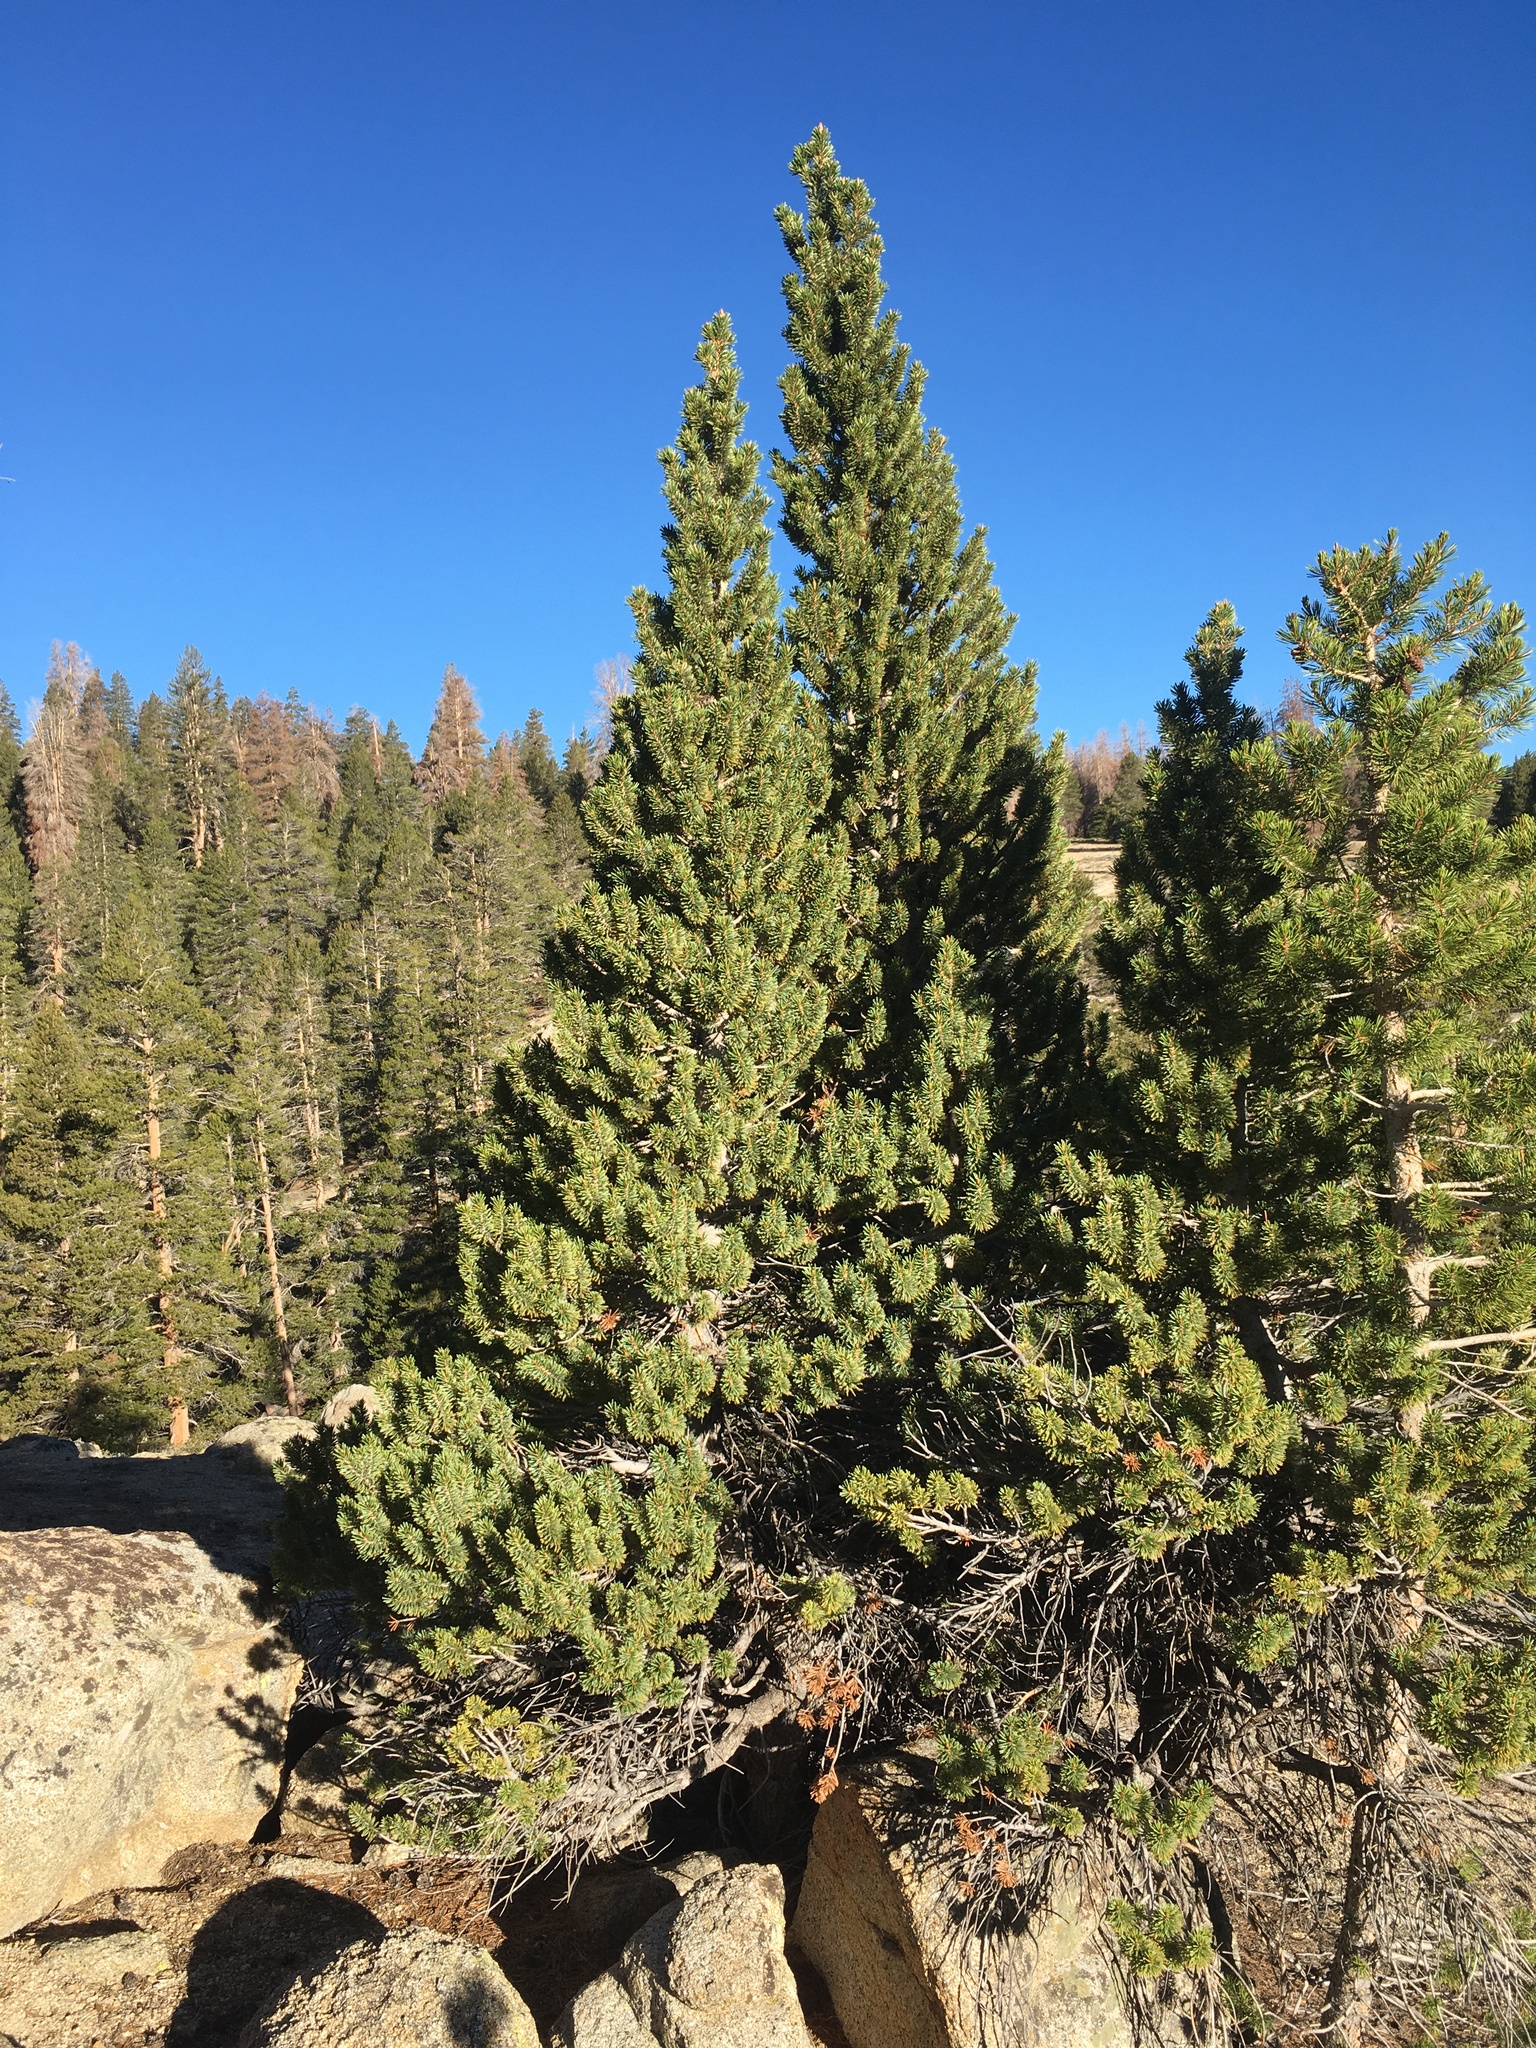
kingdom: Plantae
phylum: Tracheophyta
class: Pinopsida
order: Pinales
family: Pinaceae
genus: Pinus
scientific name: Pinus balfouriana
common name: Foxtail pine
